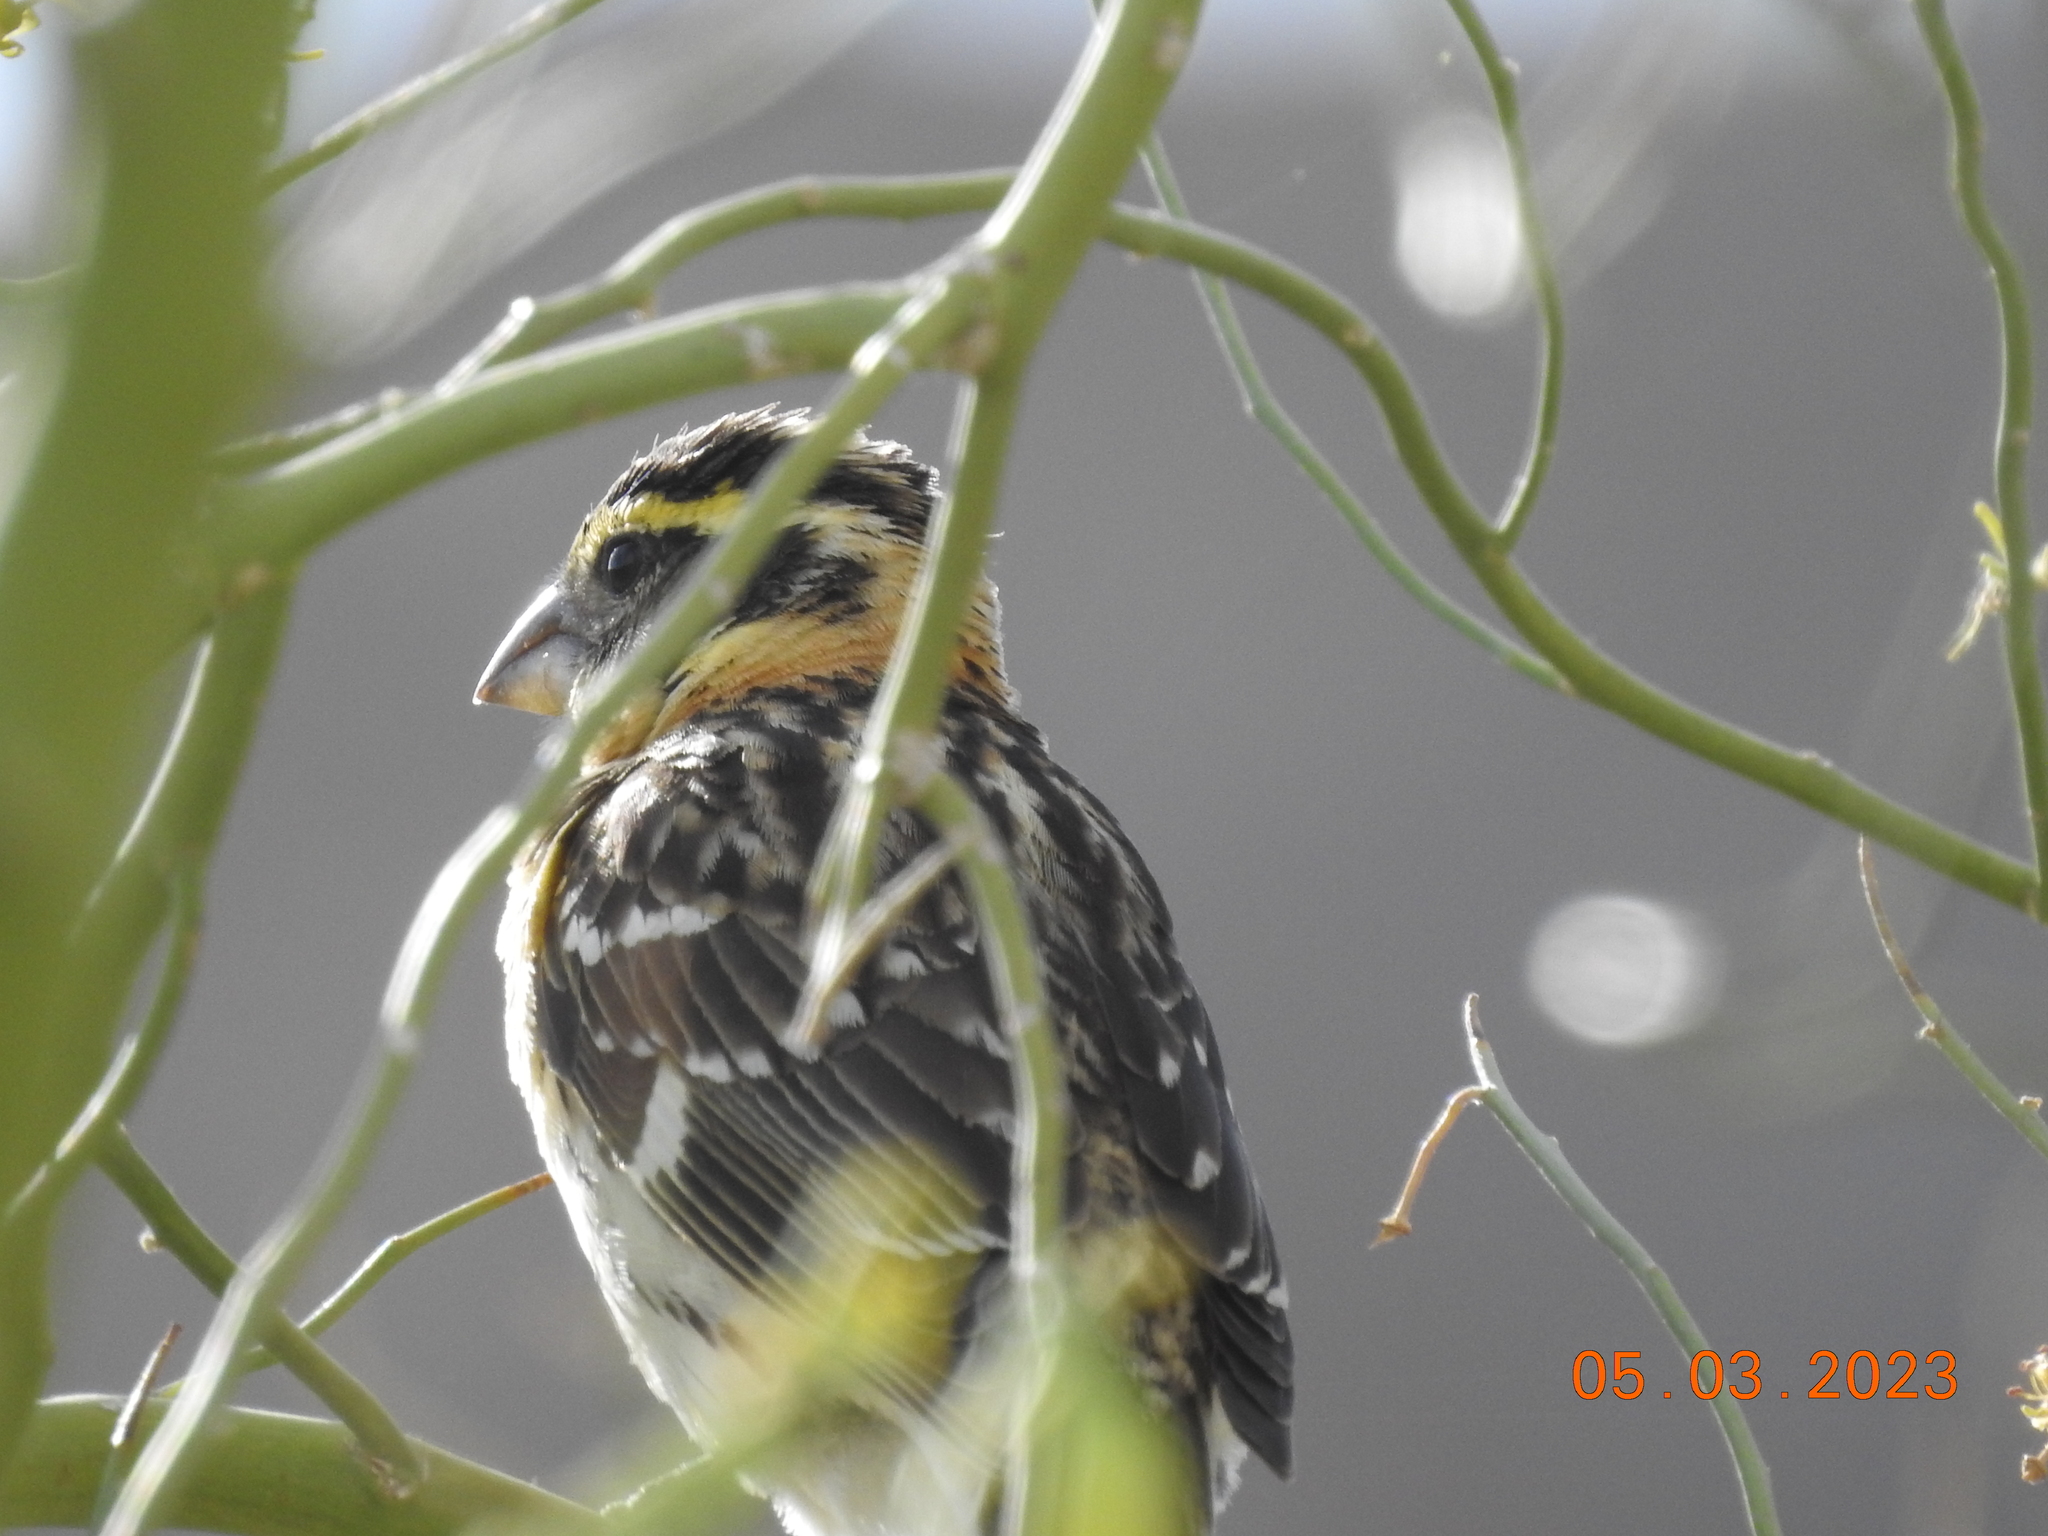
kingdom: Animalia
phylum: Chordata
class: Aves
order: Passeriformes
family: Cardinalidae
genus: Pheucticus
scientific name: Pheucticus melanocephalus
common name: Black-headed grosbeak
